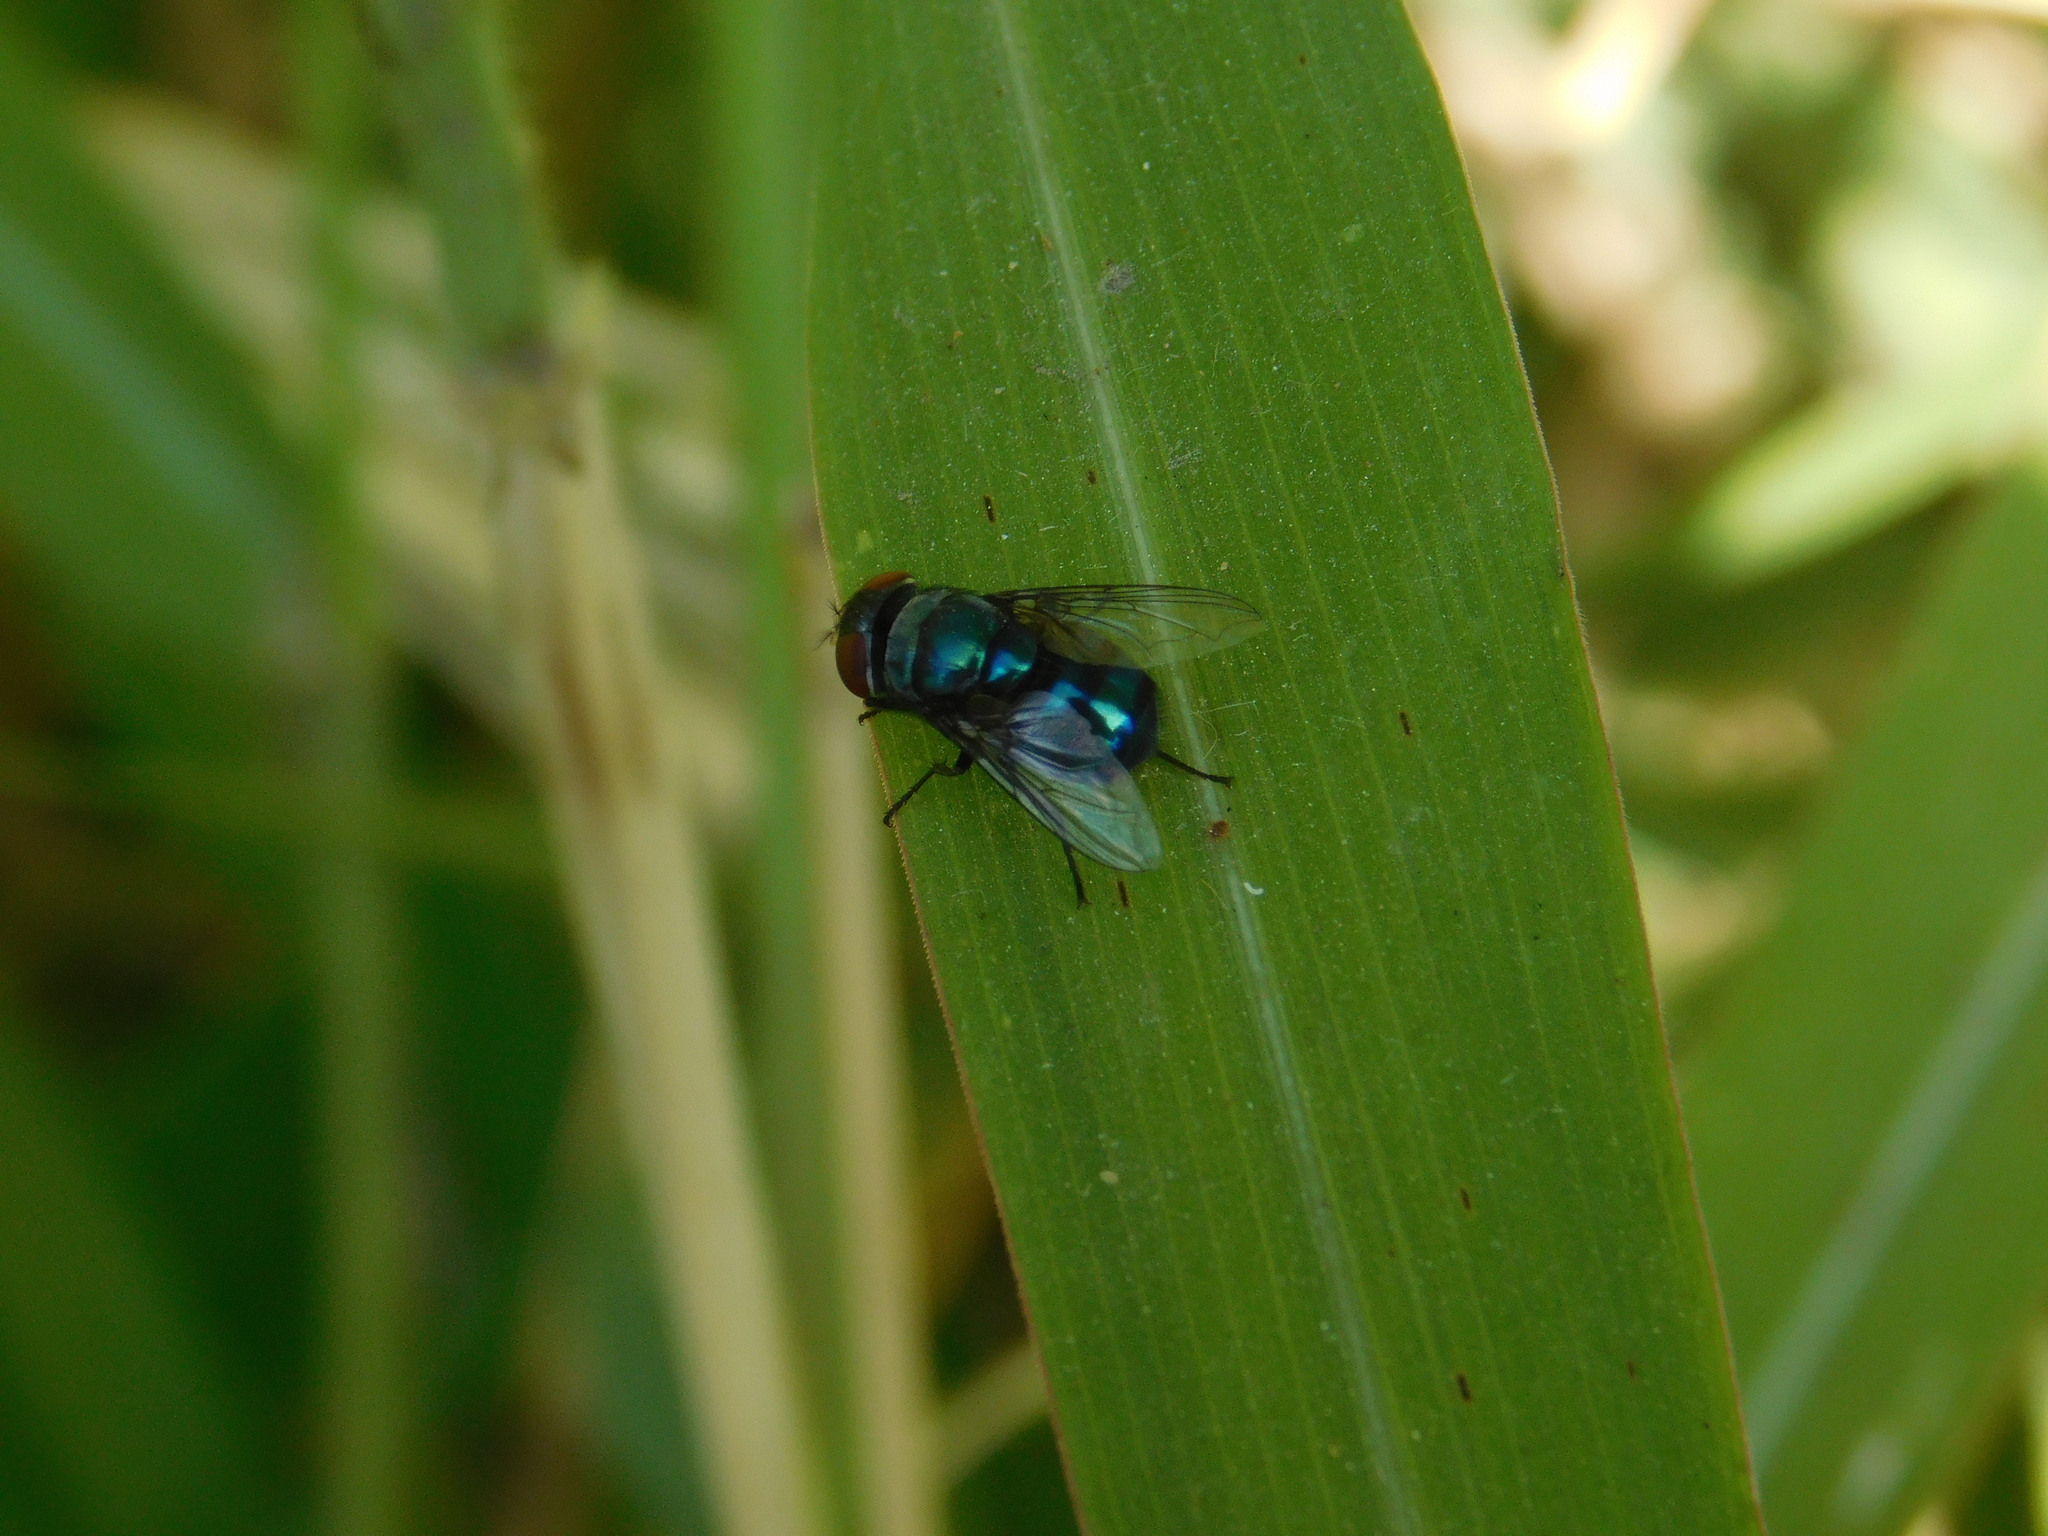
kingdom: Animalia
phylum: Arthropoda
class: Insecta
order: Diptera
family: Calliphoridae
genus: Chrysomya
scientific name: Chrysomya megacephala
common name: Blow fly
